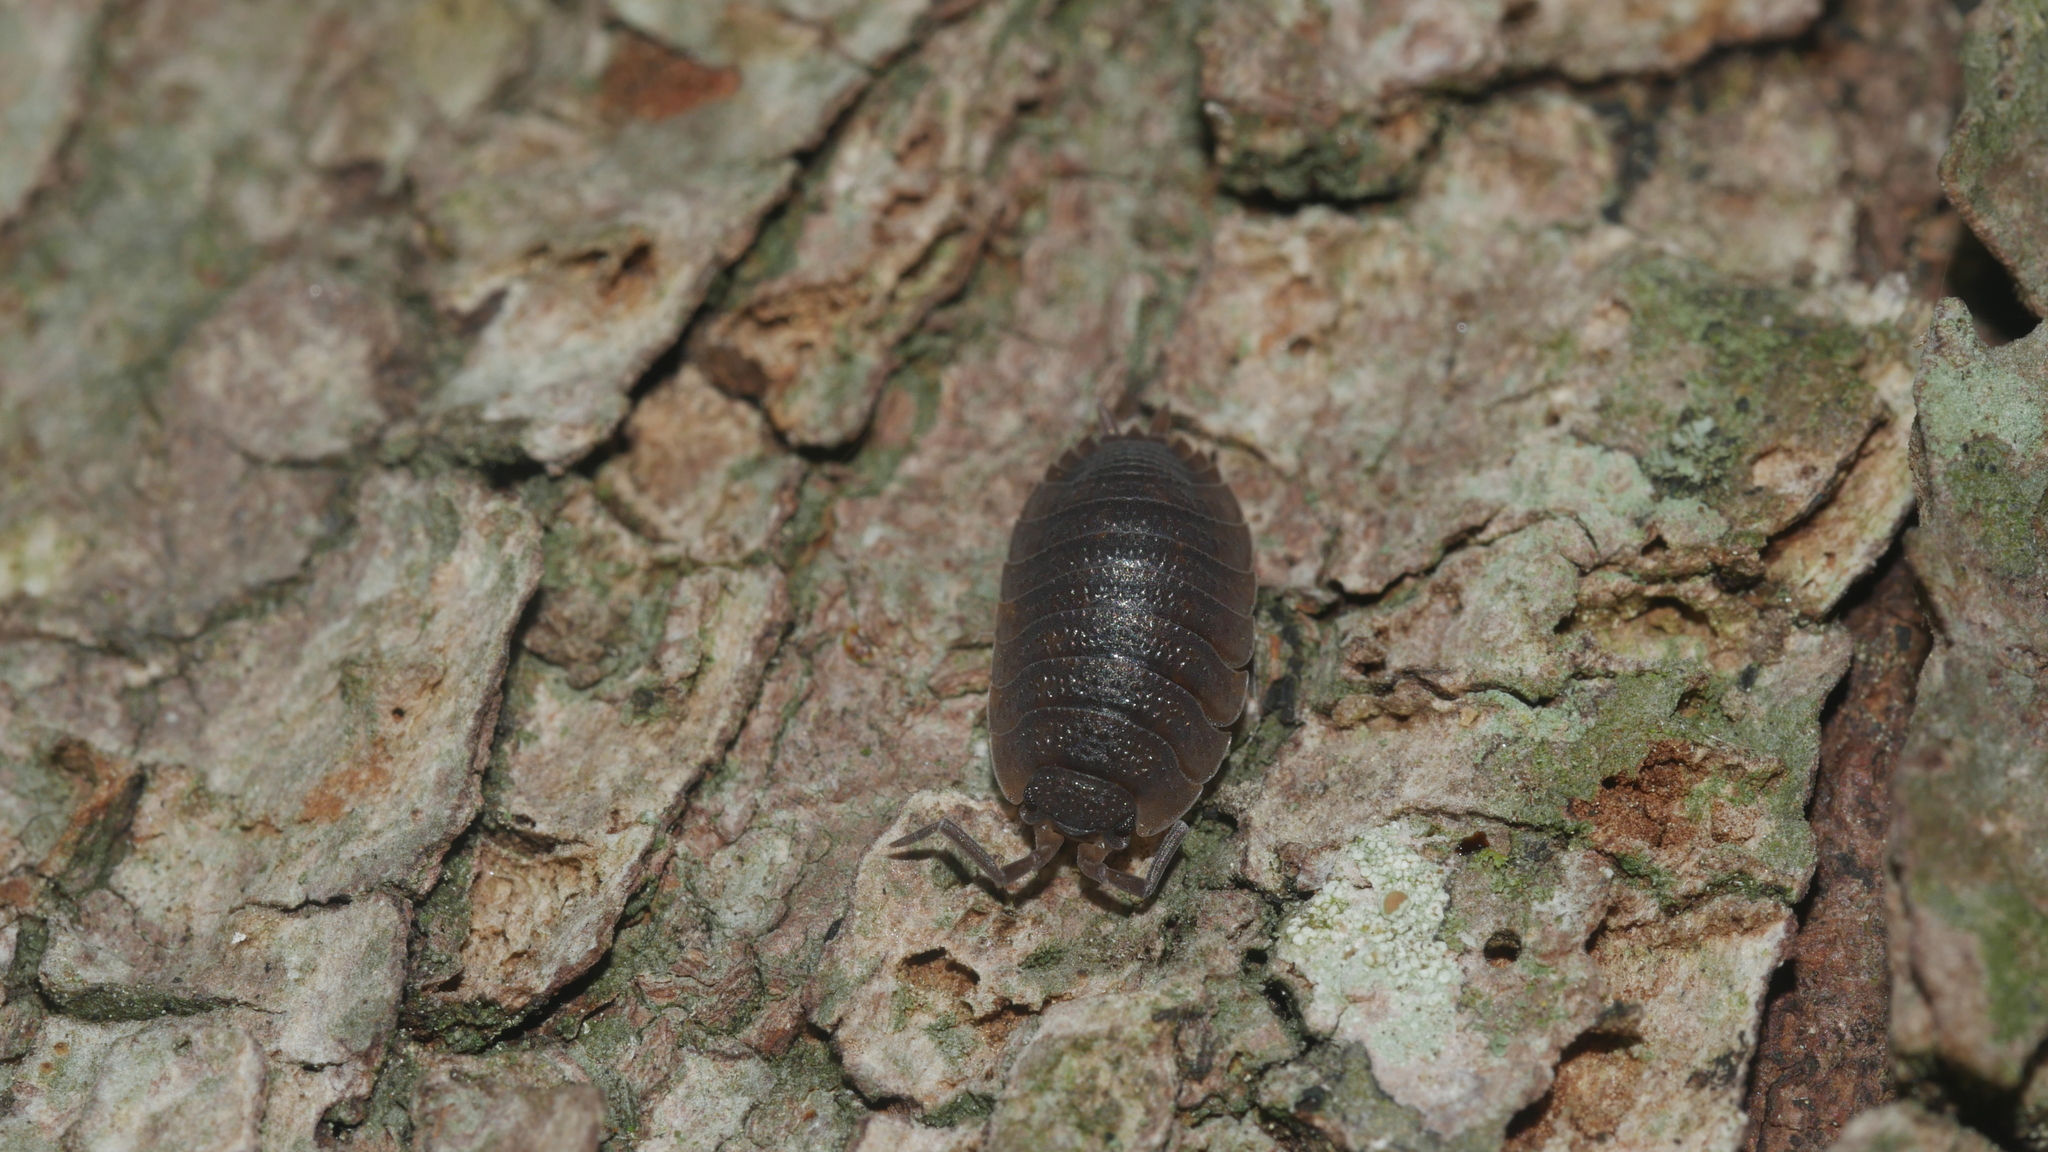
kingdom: Animalia
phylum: Arthropoda
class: Malacostraca
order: Isopoda
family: Porcellionidae
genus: Porcellio
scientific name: Porcellio scaber
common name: Common rough woodlouse
